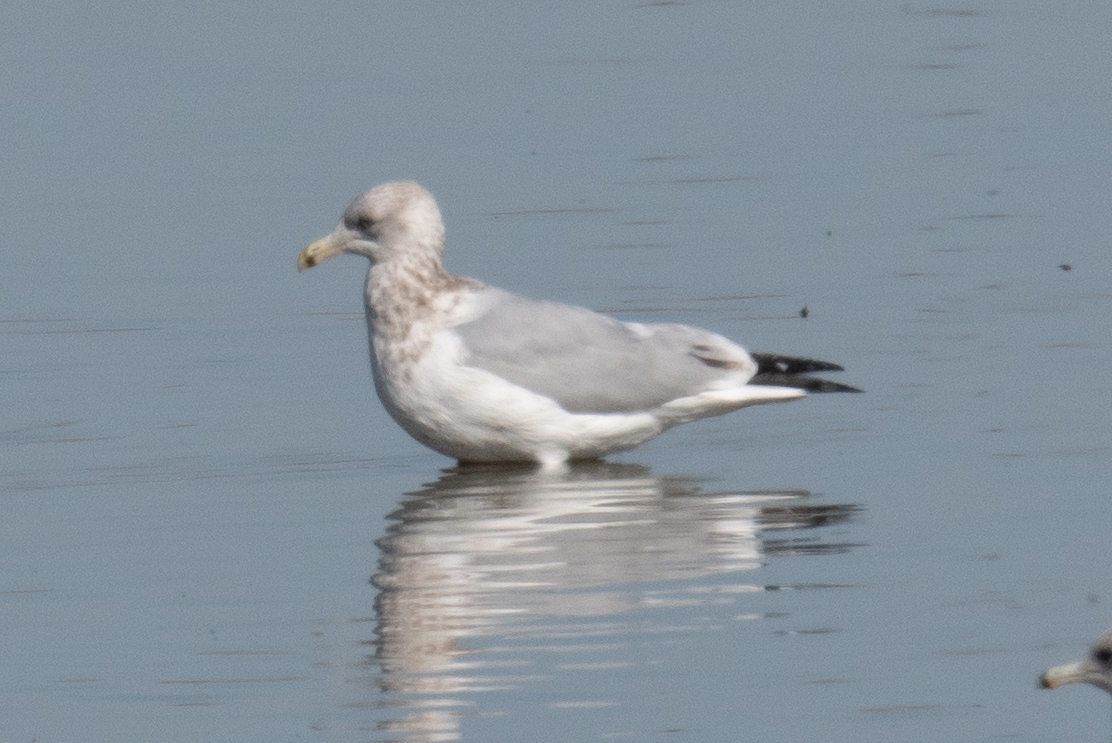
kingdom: Animalia
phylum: Chordata
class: Aves
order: Charadriiformes
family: Laridae
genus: Larus
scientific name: Larus argentatus
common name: Herring gull
